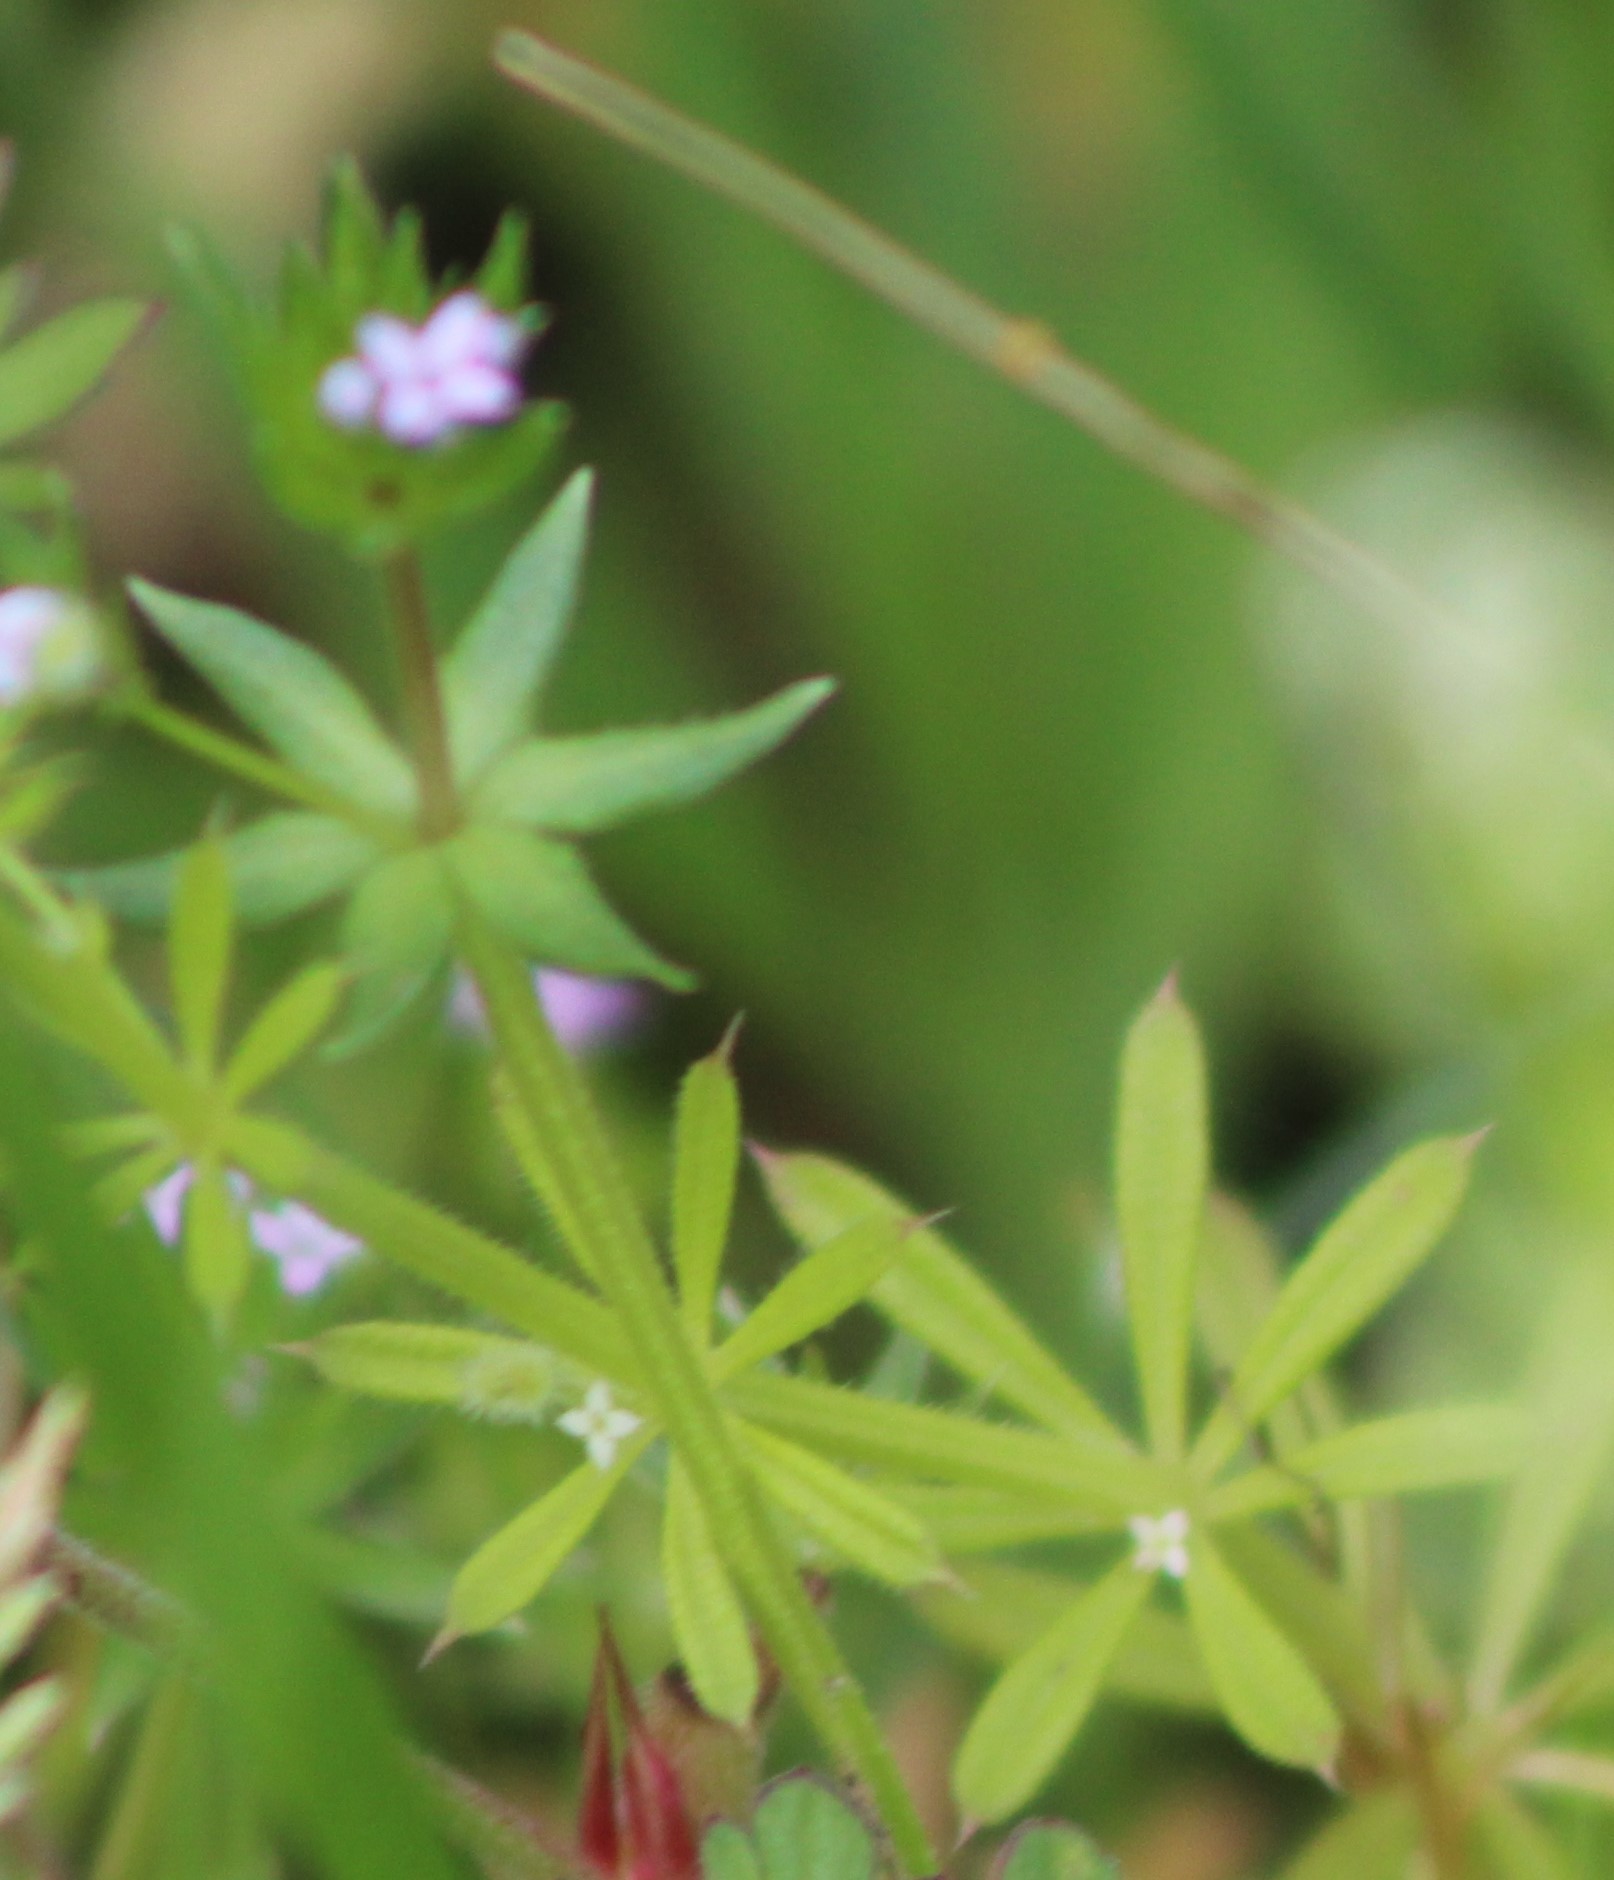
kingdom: Plantae
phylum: Tracheophyta
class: Magnoliopsida
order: Gentianales
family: Rubiaceae
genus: Sherardia
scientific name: Sherardia arvensis
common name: Field madder
